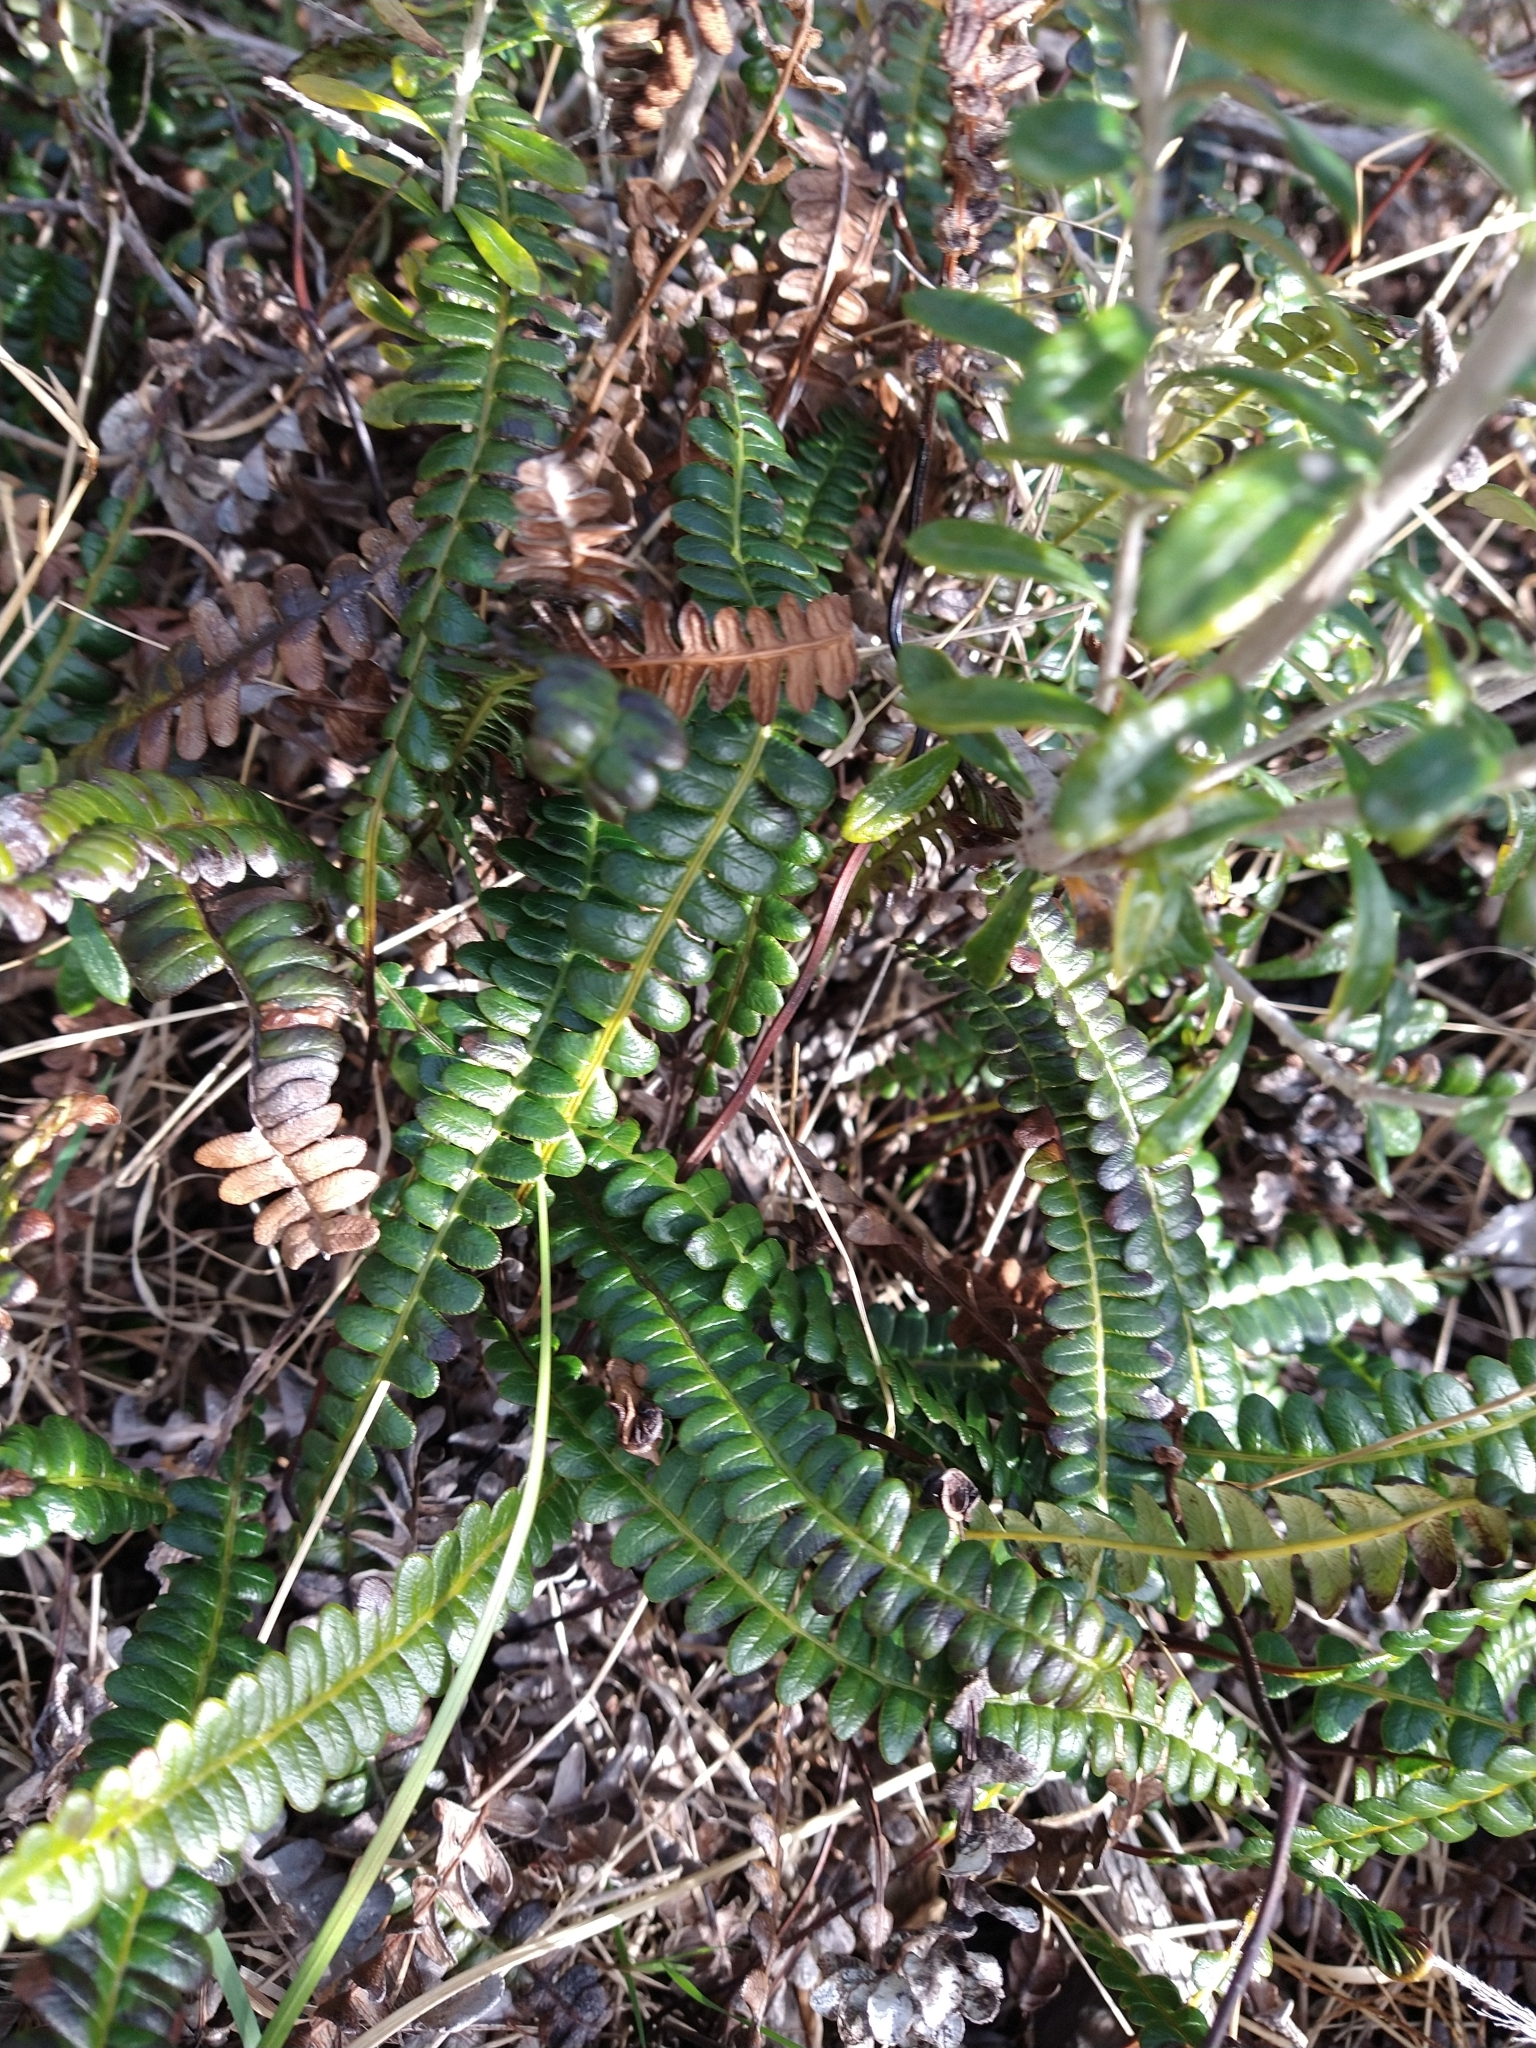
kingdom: Plantae
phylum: Tracheophyta
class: Polypodiopsida
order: Polypodiales
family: Blechnaceae
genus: Austroblechnum
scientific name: Austroblechnum penna-marina
